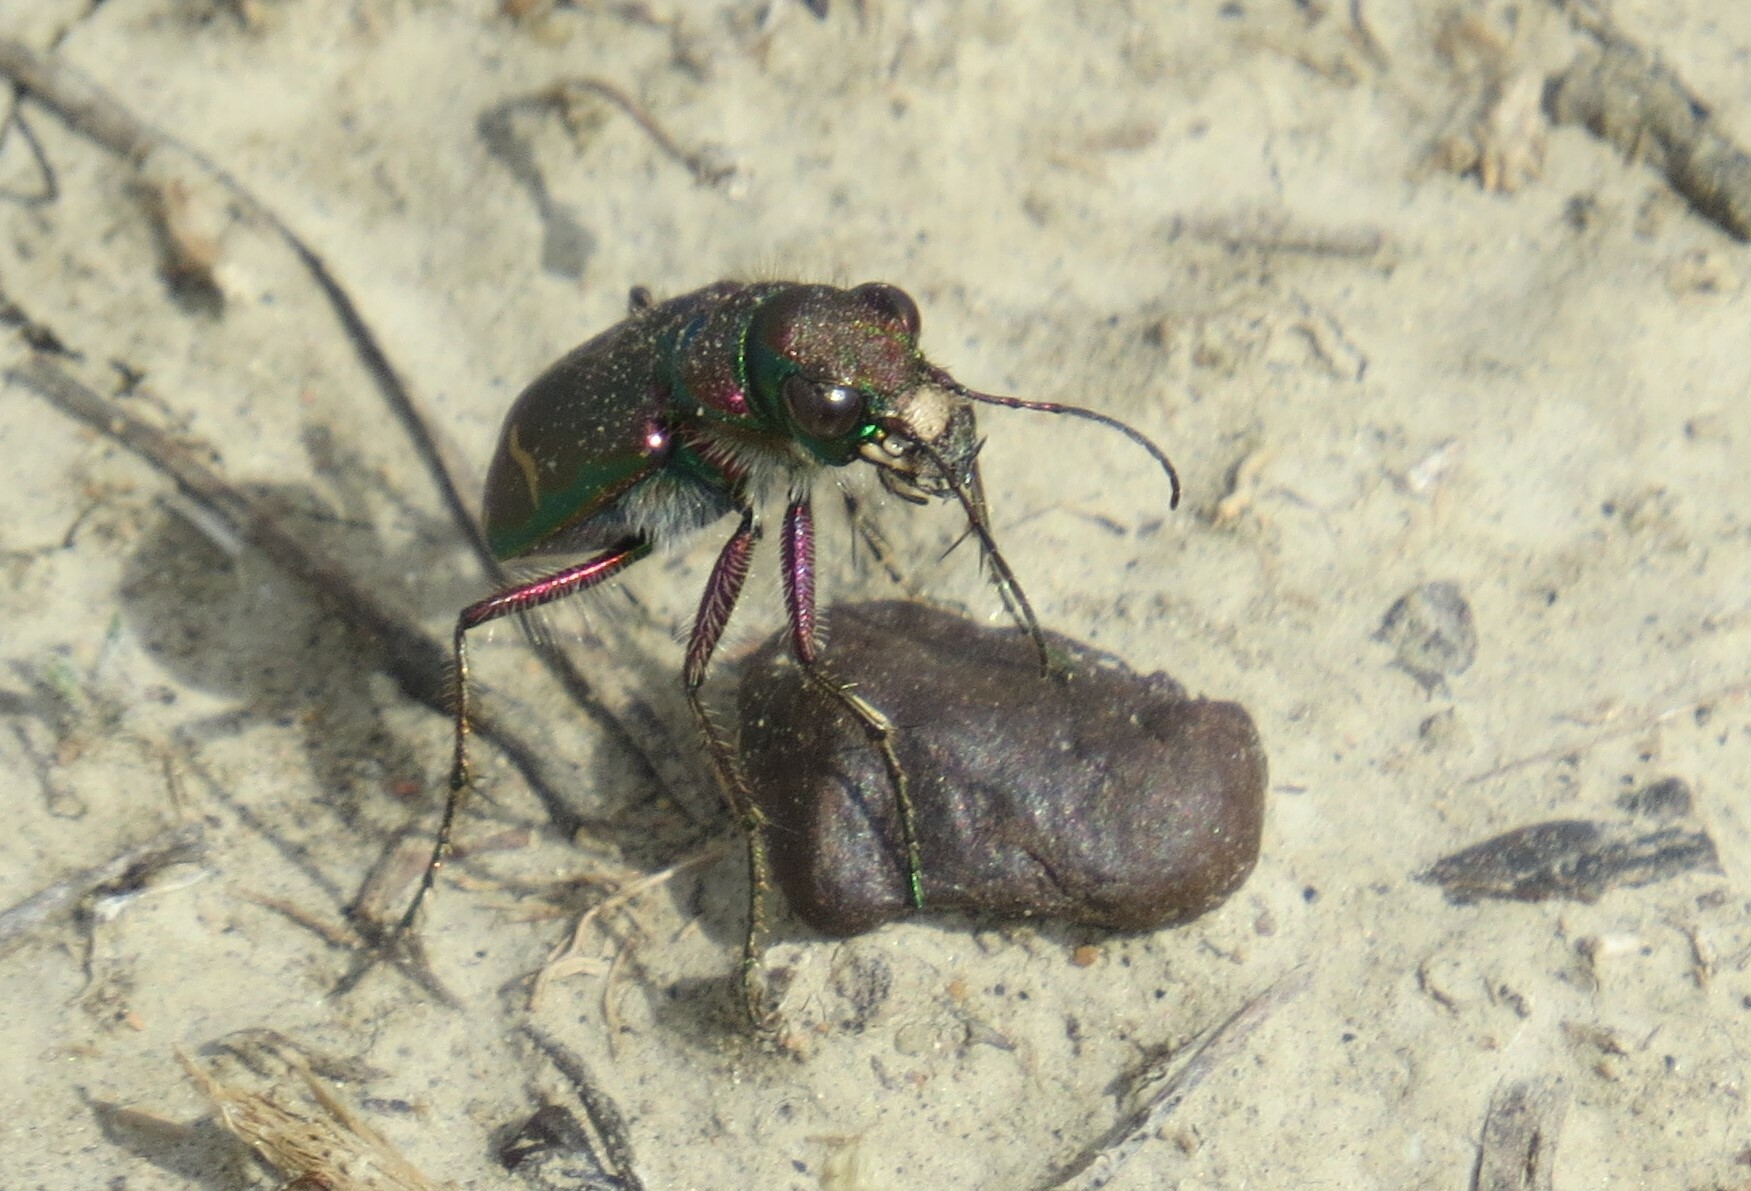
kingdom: Animalia
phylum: Arthropoda
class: Insecta
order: Coleoptera
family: Carabidae
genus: Cicindela
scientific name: Cicindela purpurea
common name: Cow path tiger beetle
